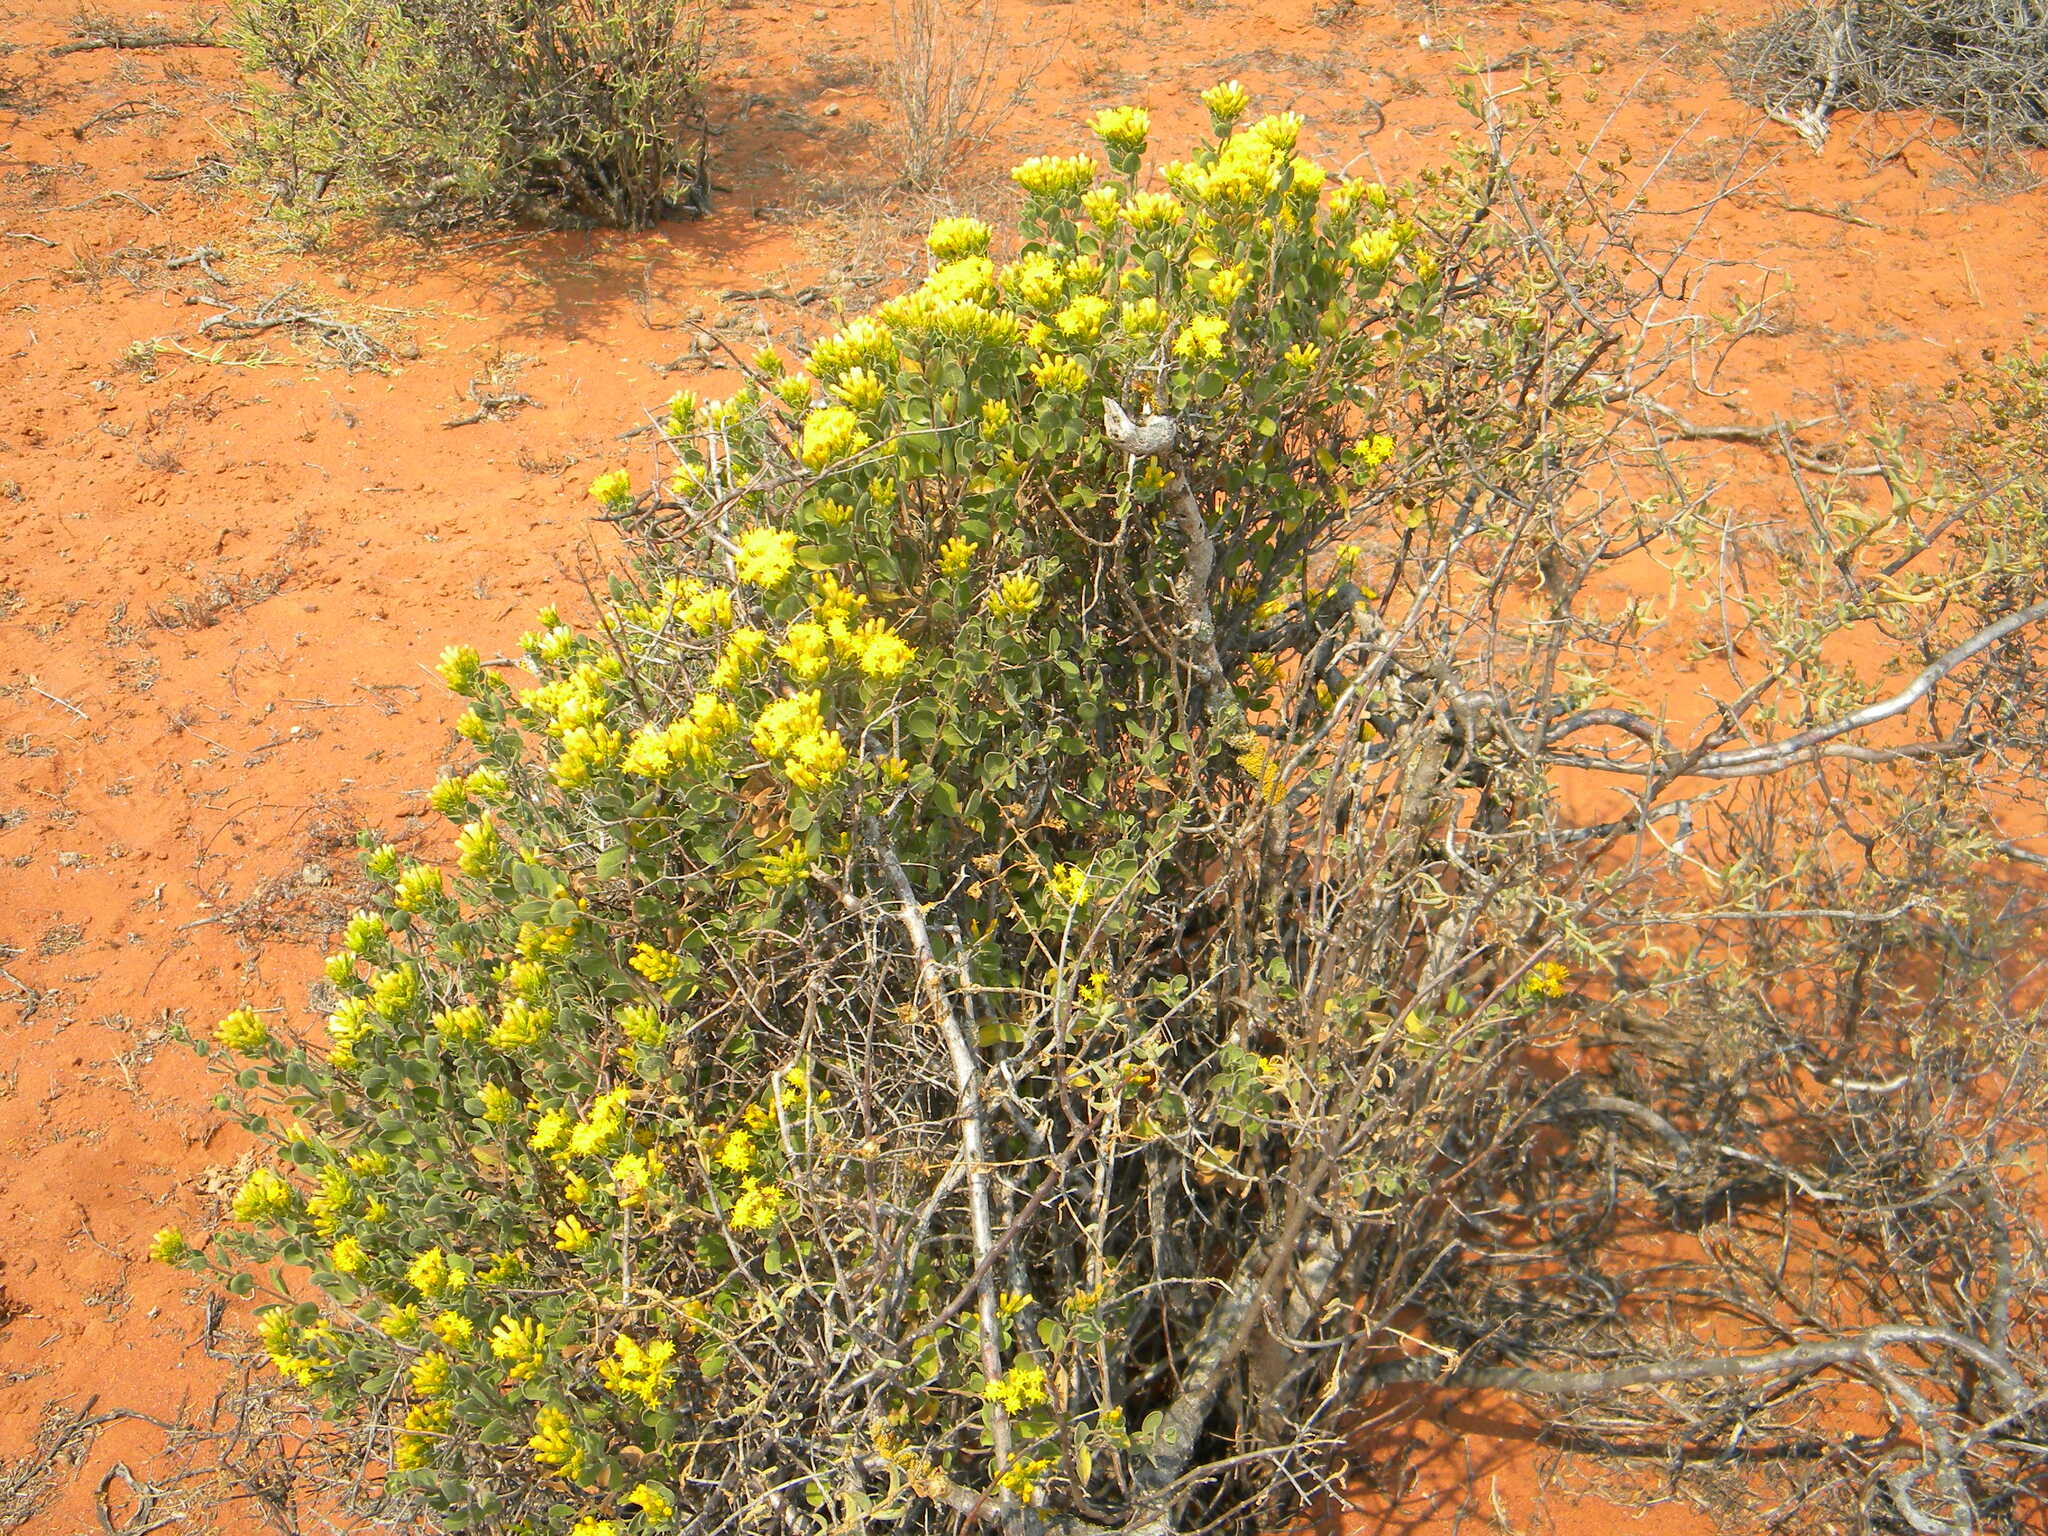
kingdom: Plantae
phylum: Tracheophyta
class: Magnoliopsida
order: Asterales
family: Asteraceae
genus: Pteronia
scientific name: Pteronia divaricata
